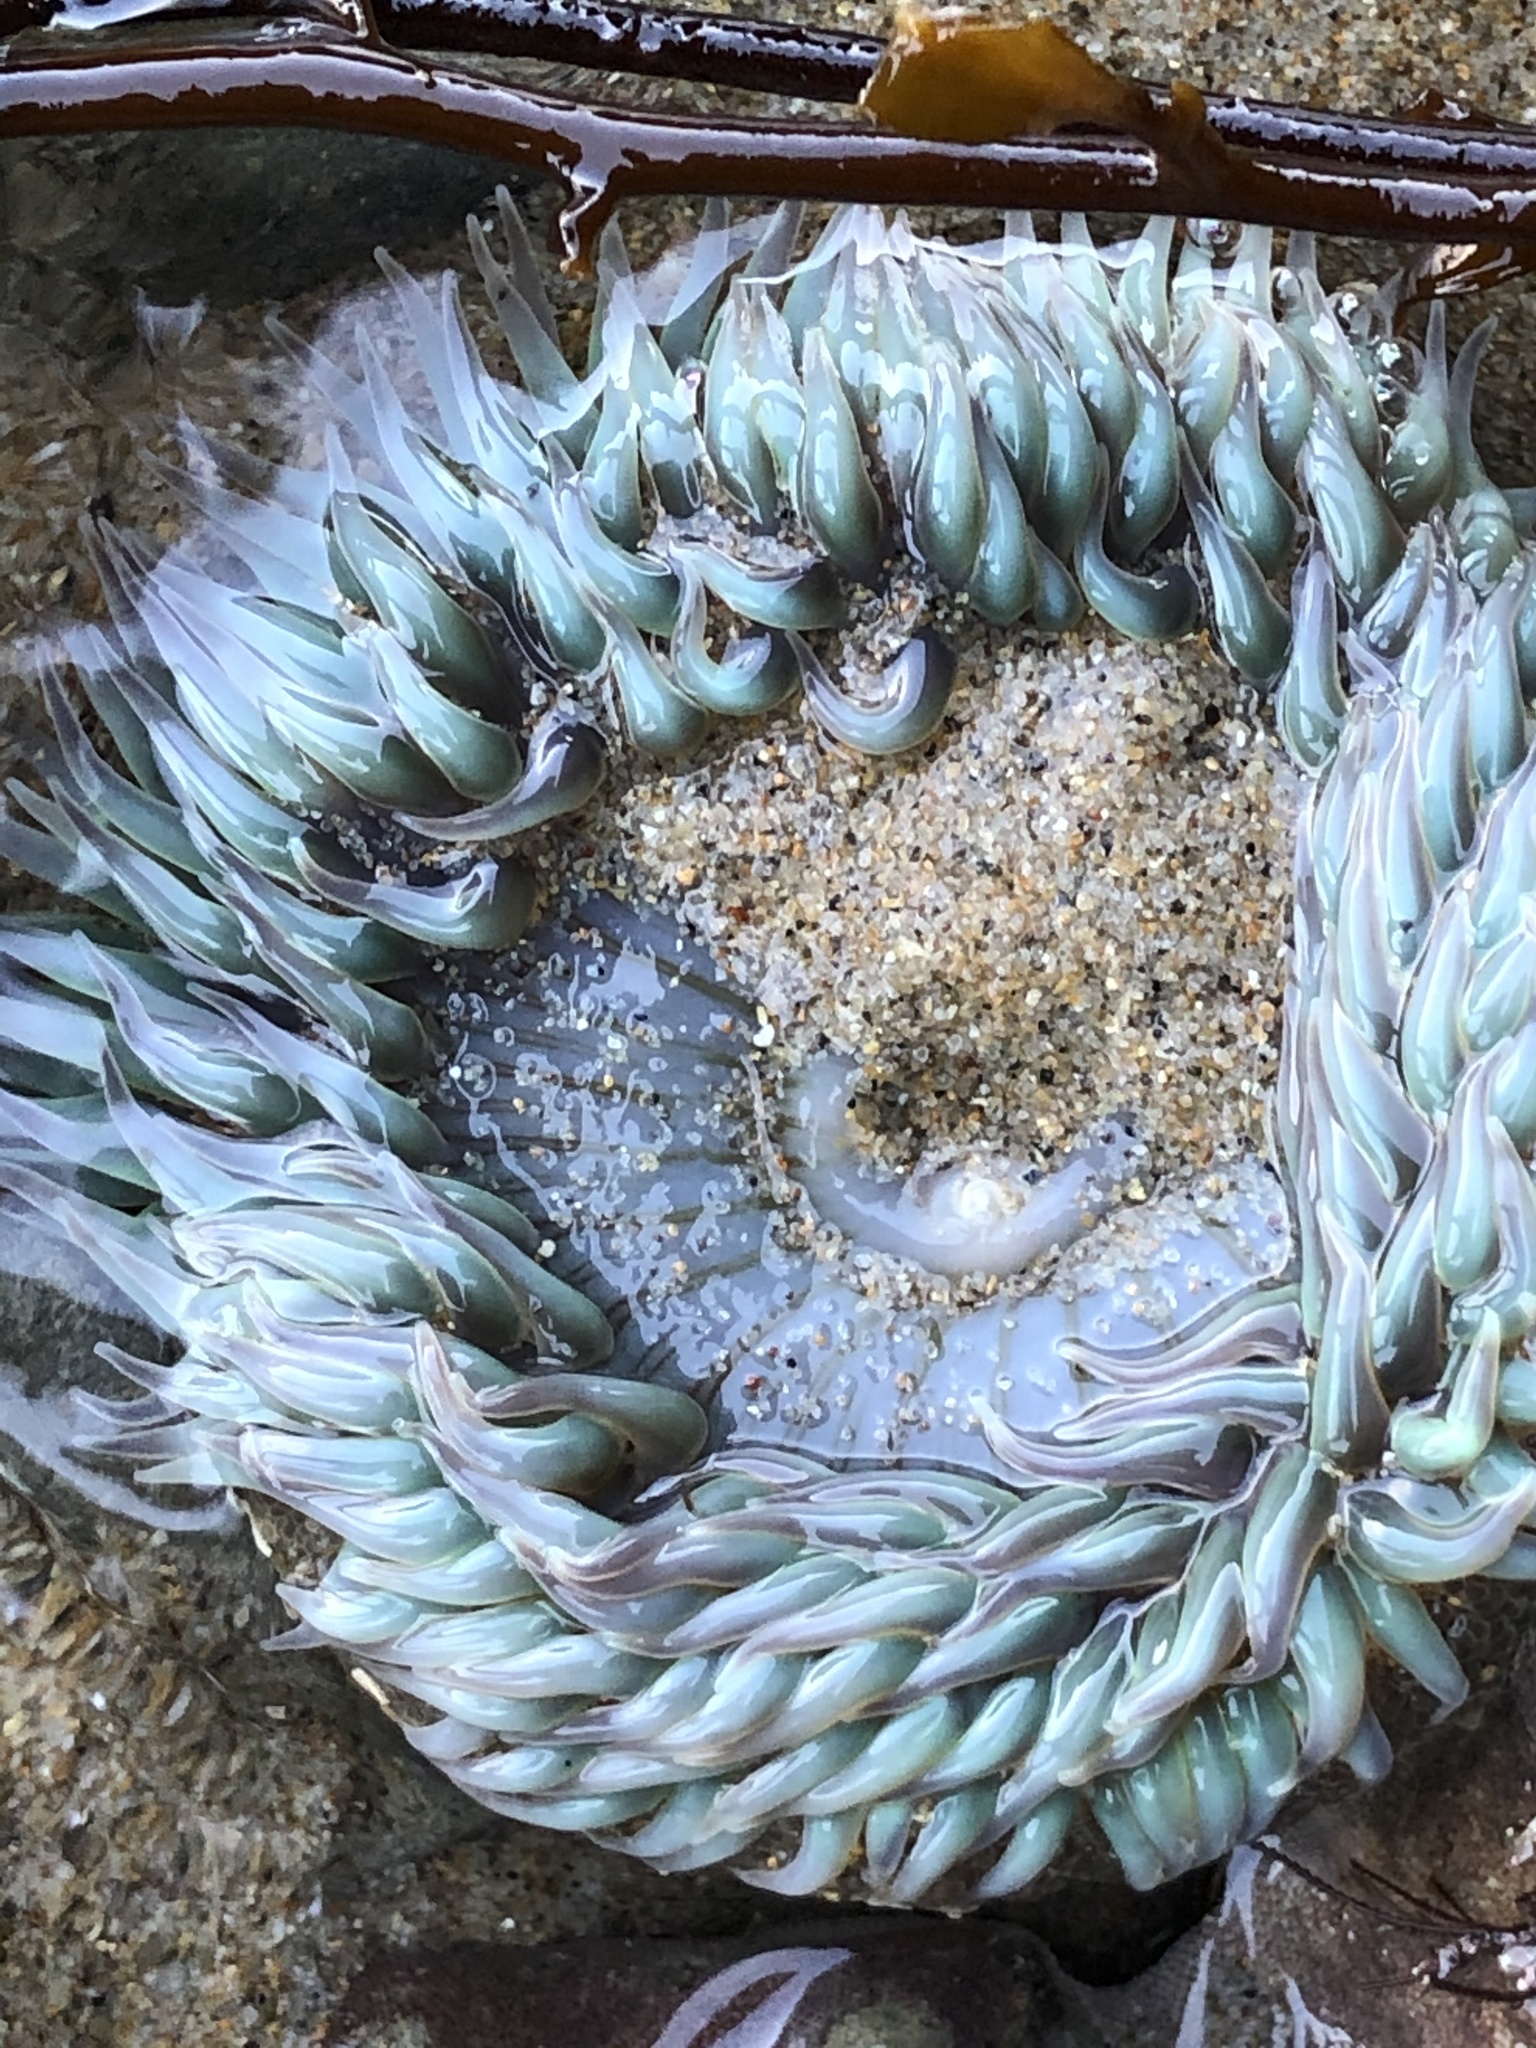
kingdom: Animalia
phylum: Cnidaria
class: Anthozoa
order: Actiniaria
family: Actiniidae
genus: Anthopleura
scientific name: Anthopleura sola
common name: Sun anemone
